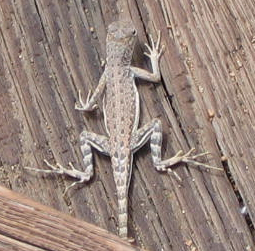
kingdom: Animalia
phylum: Chordata
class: Squamata
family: Phrynosomatidae
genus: Callisaurus
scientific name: Callisaurus draconoides
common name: Zebra-tailed lizard
